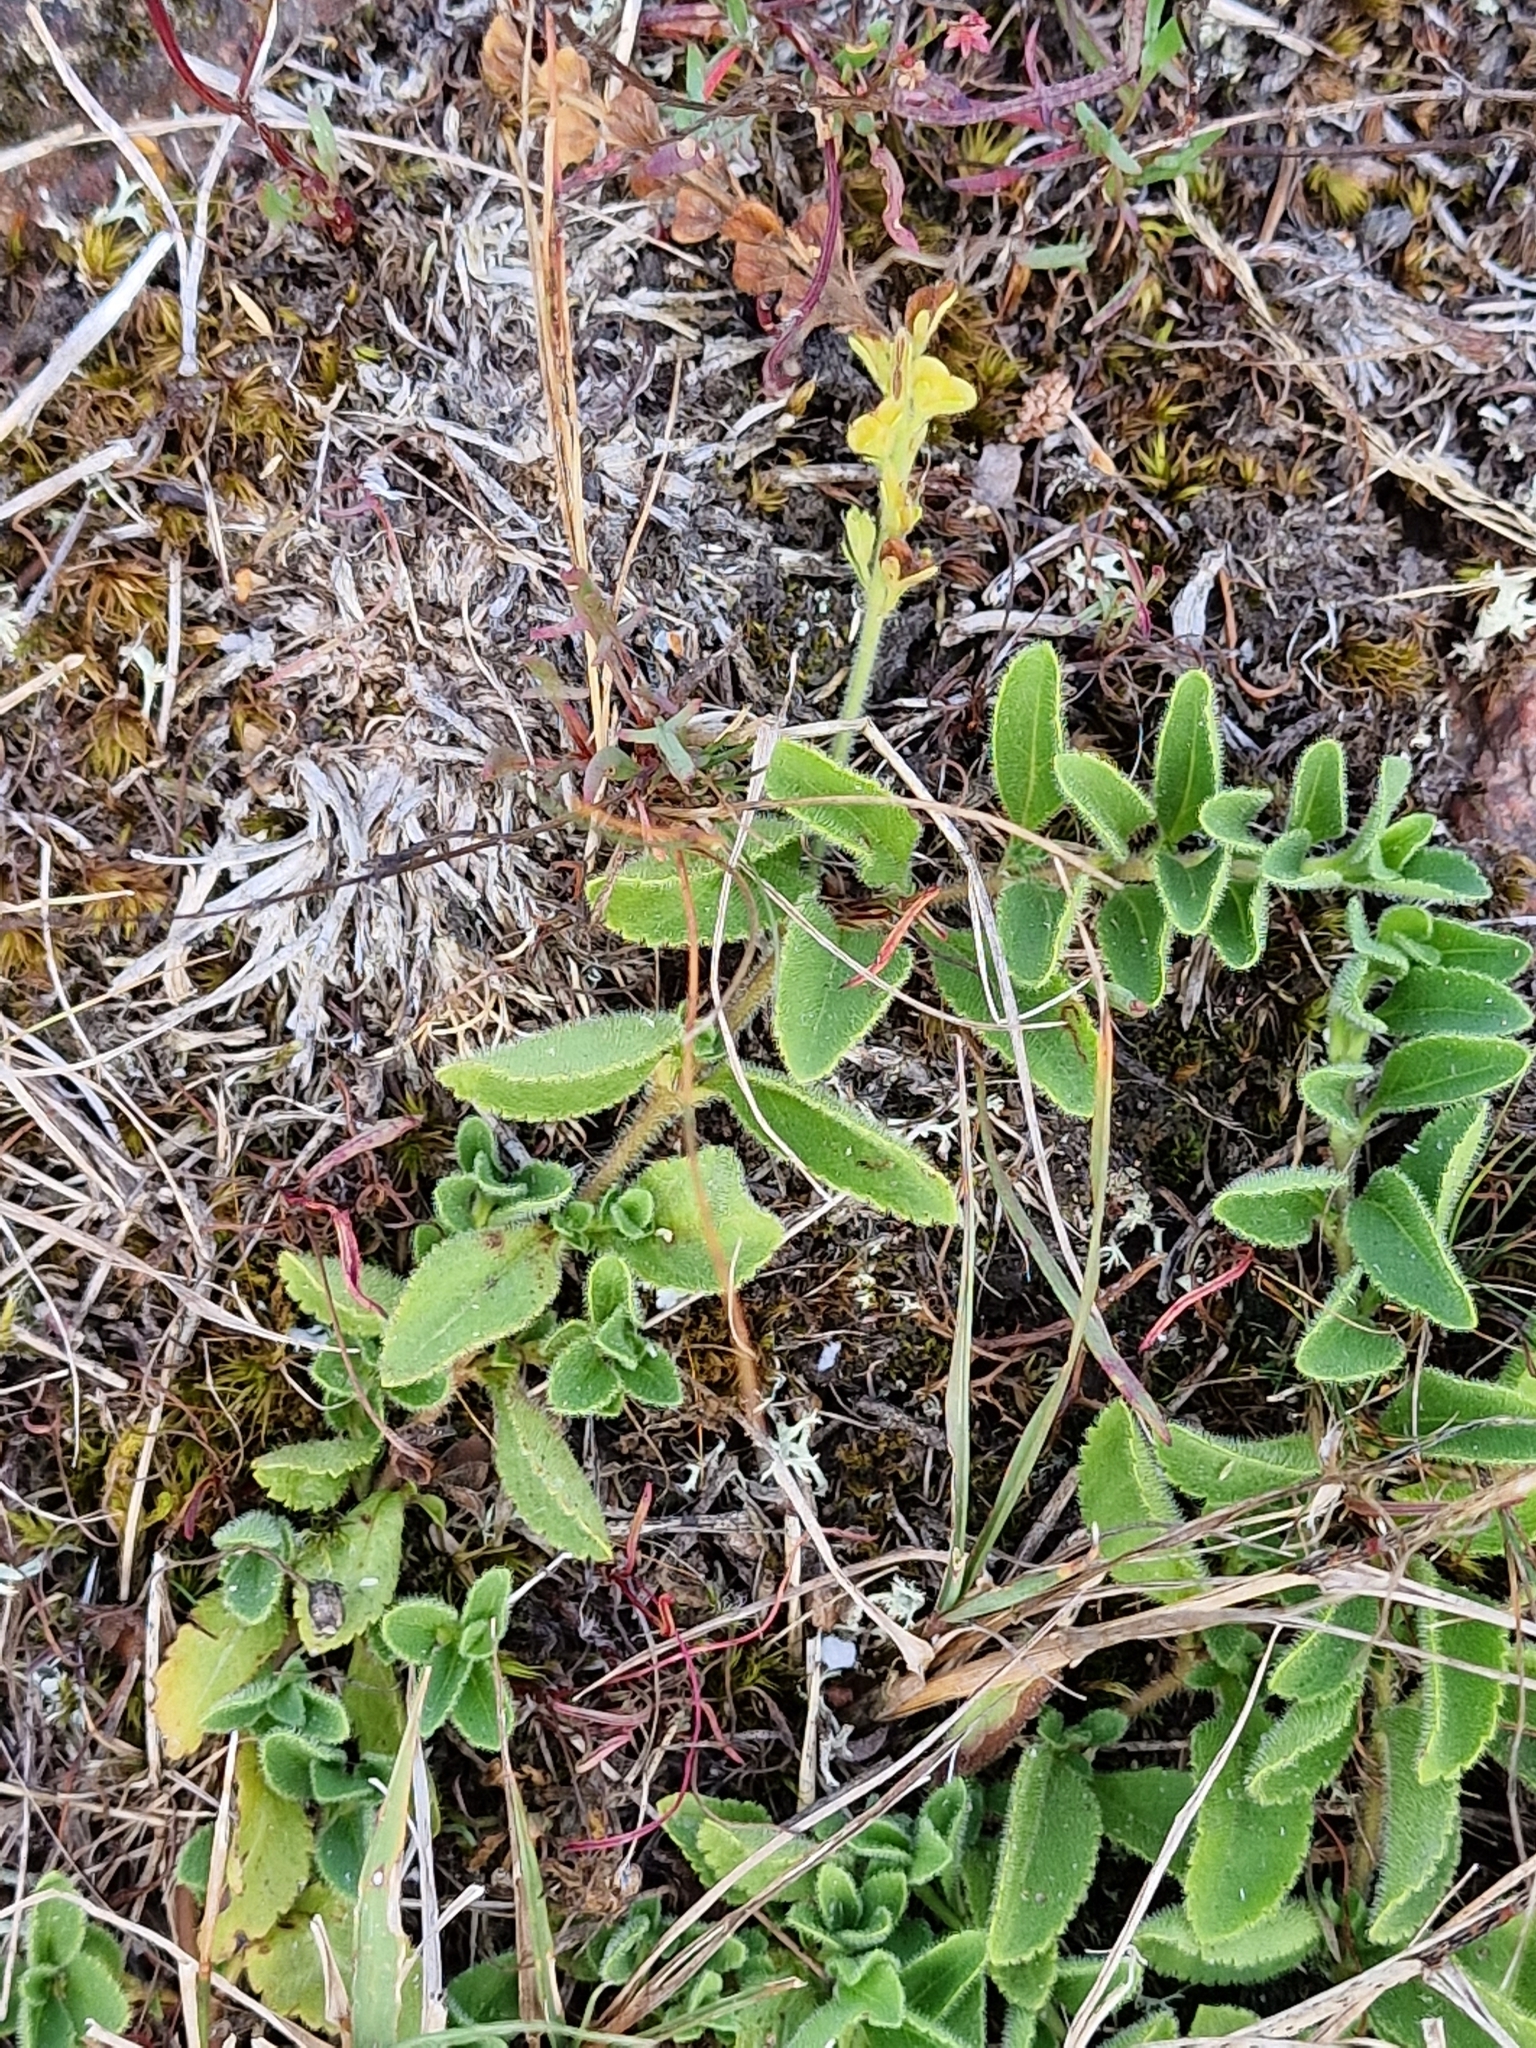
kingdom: Plantae
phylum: Tracheophyta
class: Magnoliopsida
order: Lamiales
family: Plantaginaceae
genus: Veronica
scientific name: Veronica officinalis
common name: Common speedwell
